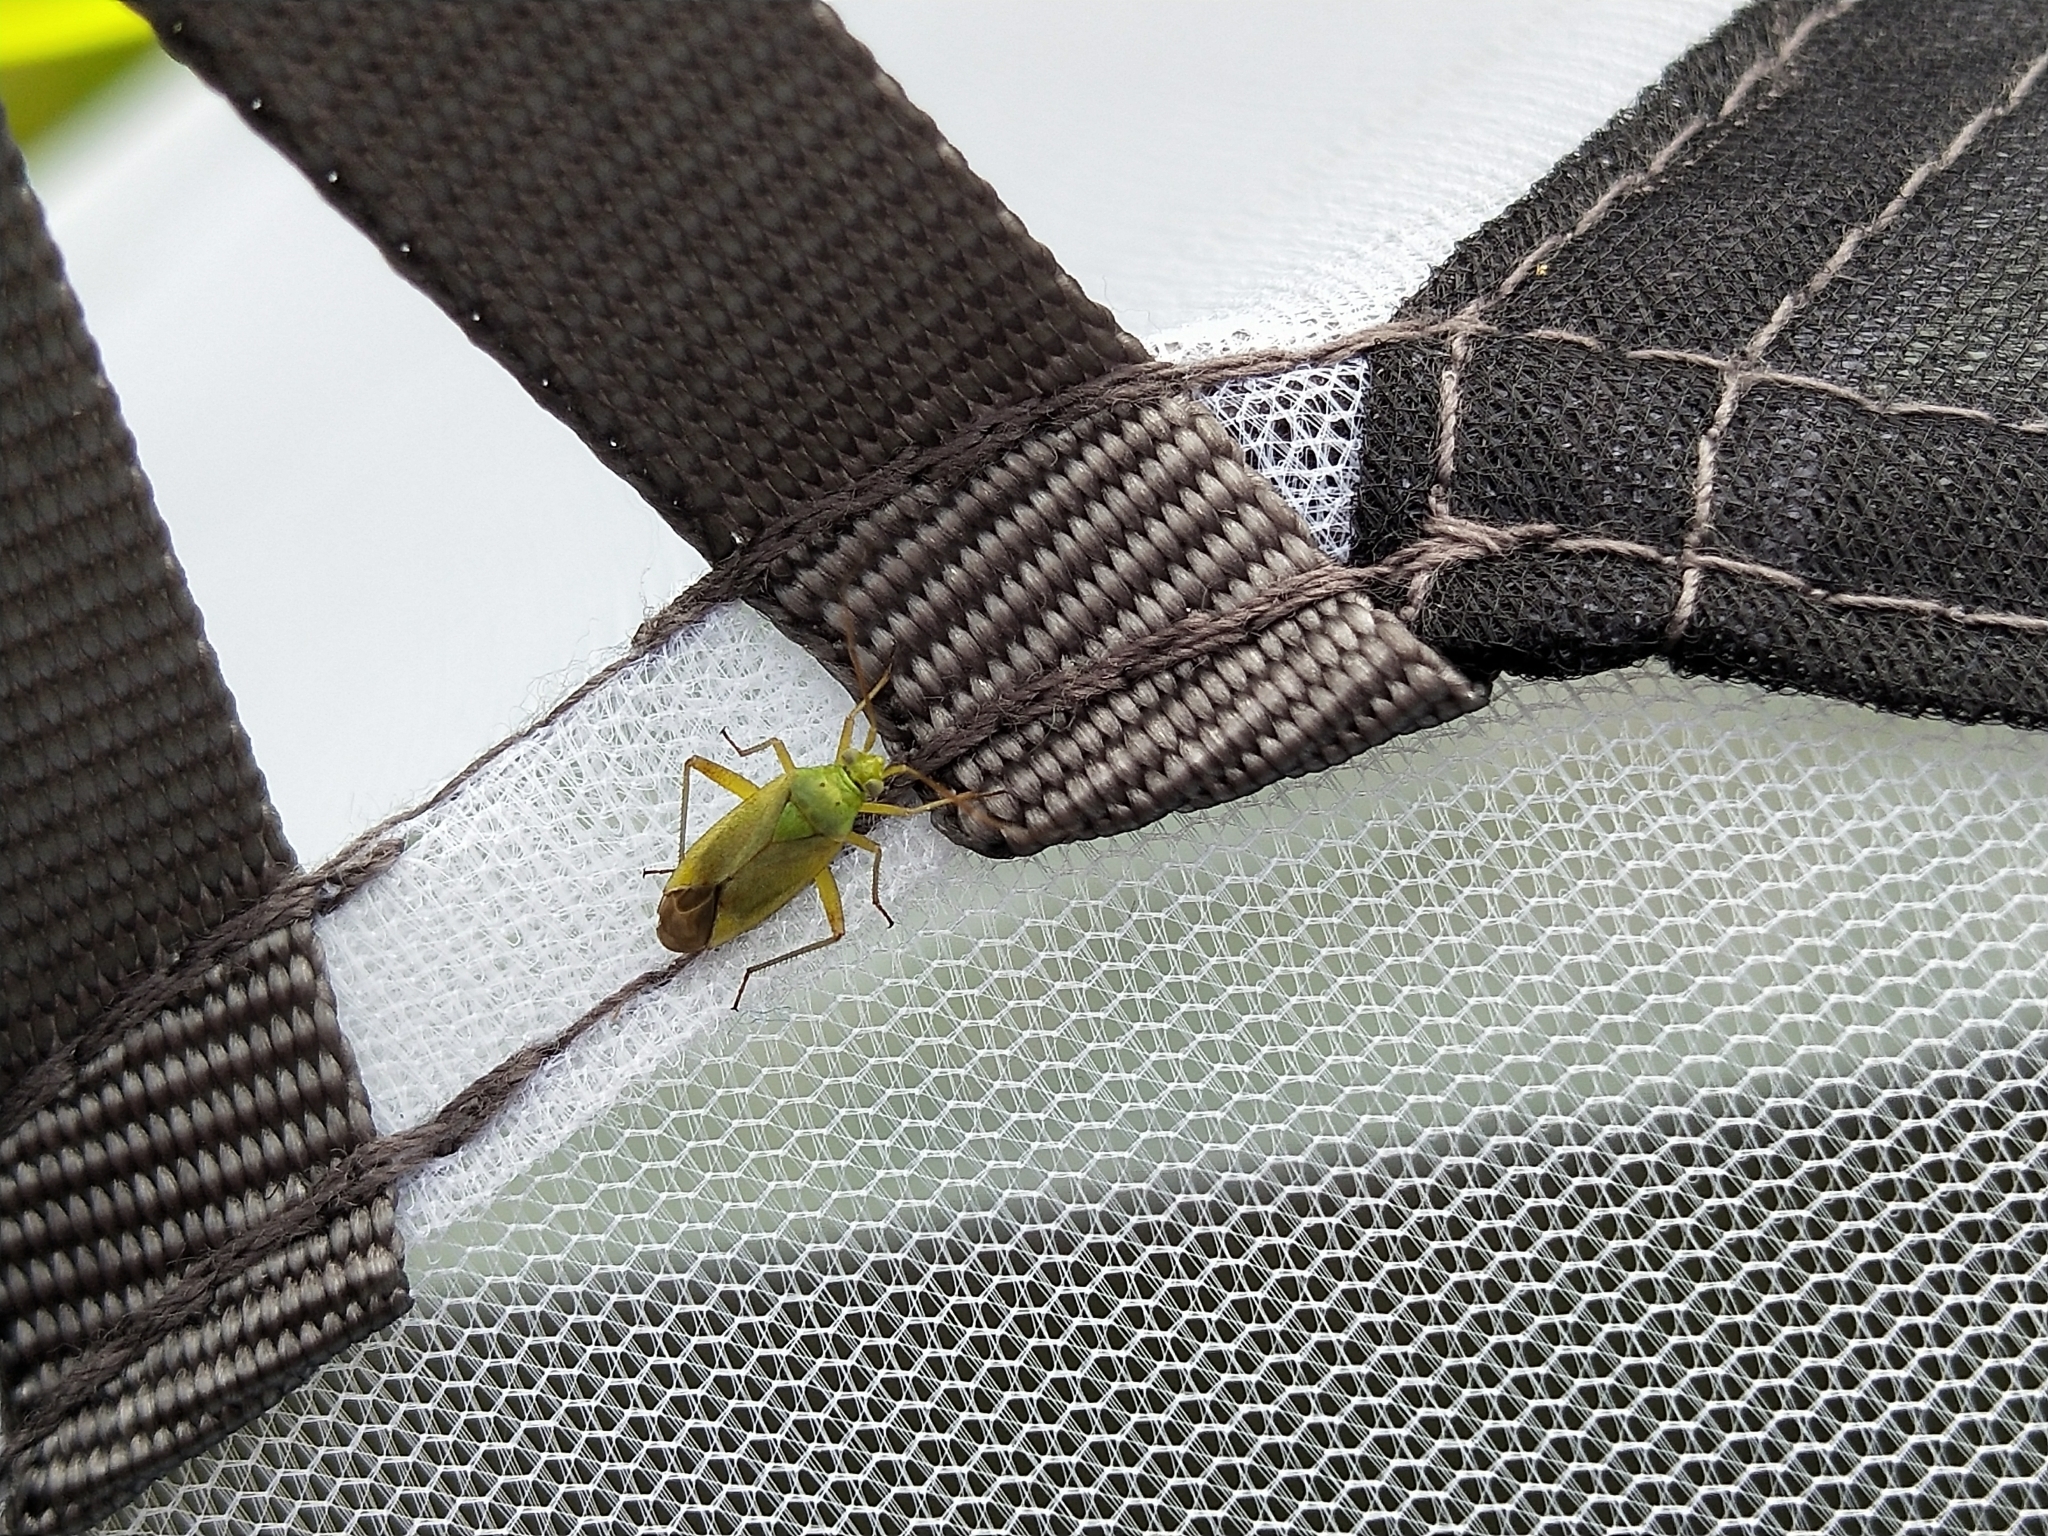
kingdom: Animalia
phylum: Arthropoda
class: Insecta
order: Hemiptera
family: Miridae
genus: Closterotomus
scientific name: Closterotomus norvegicus
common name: Plant bug
